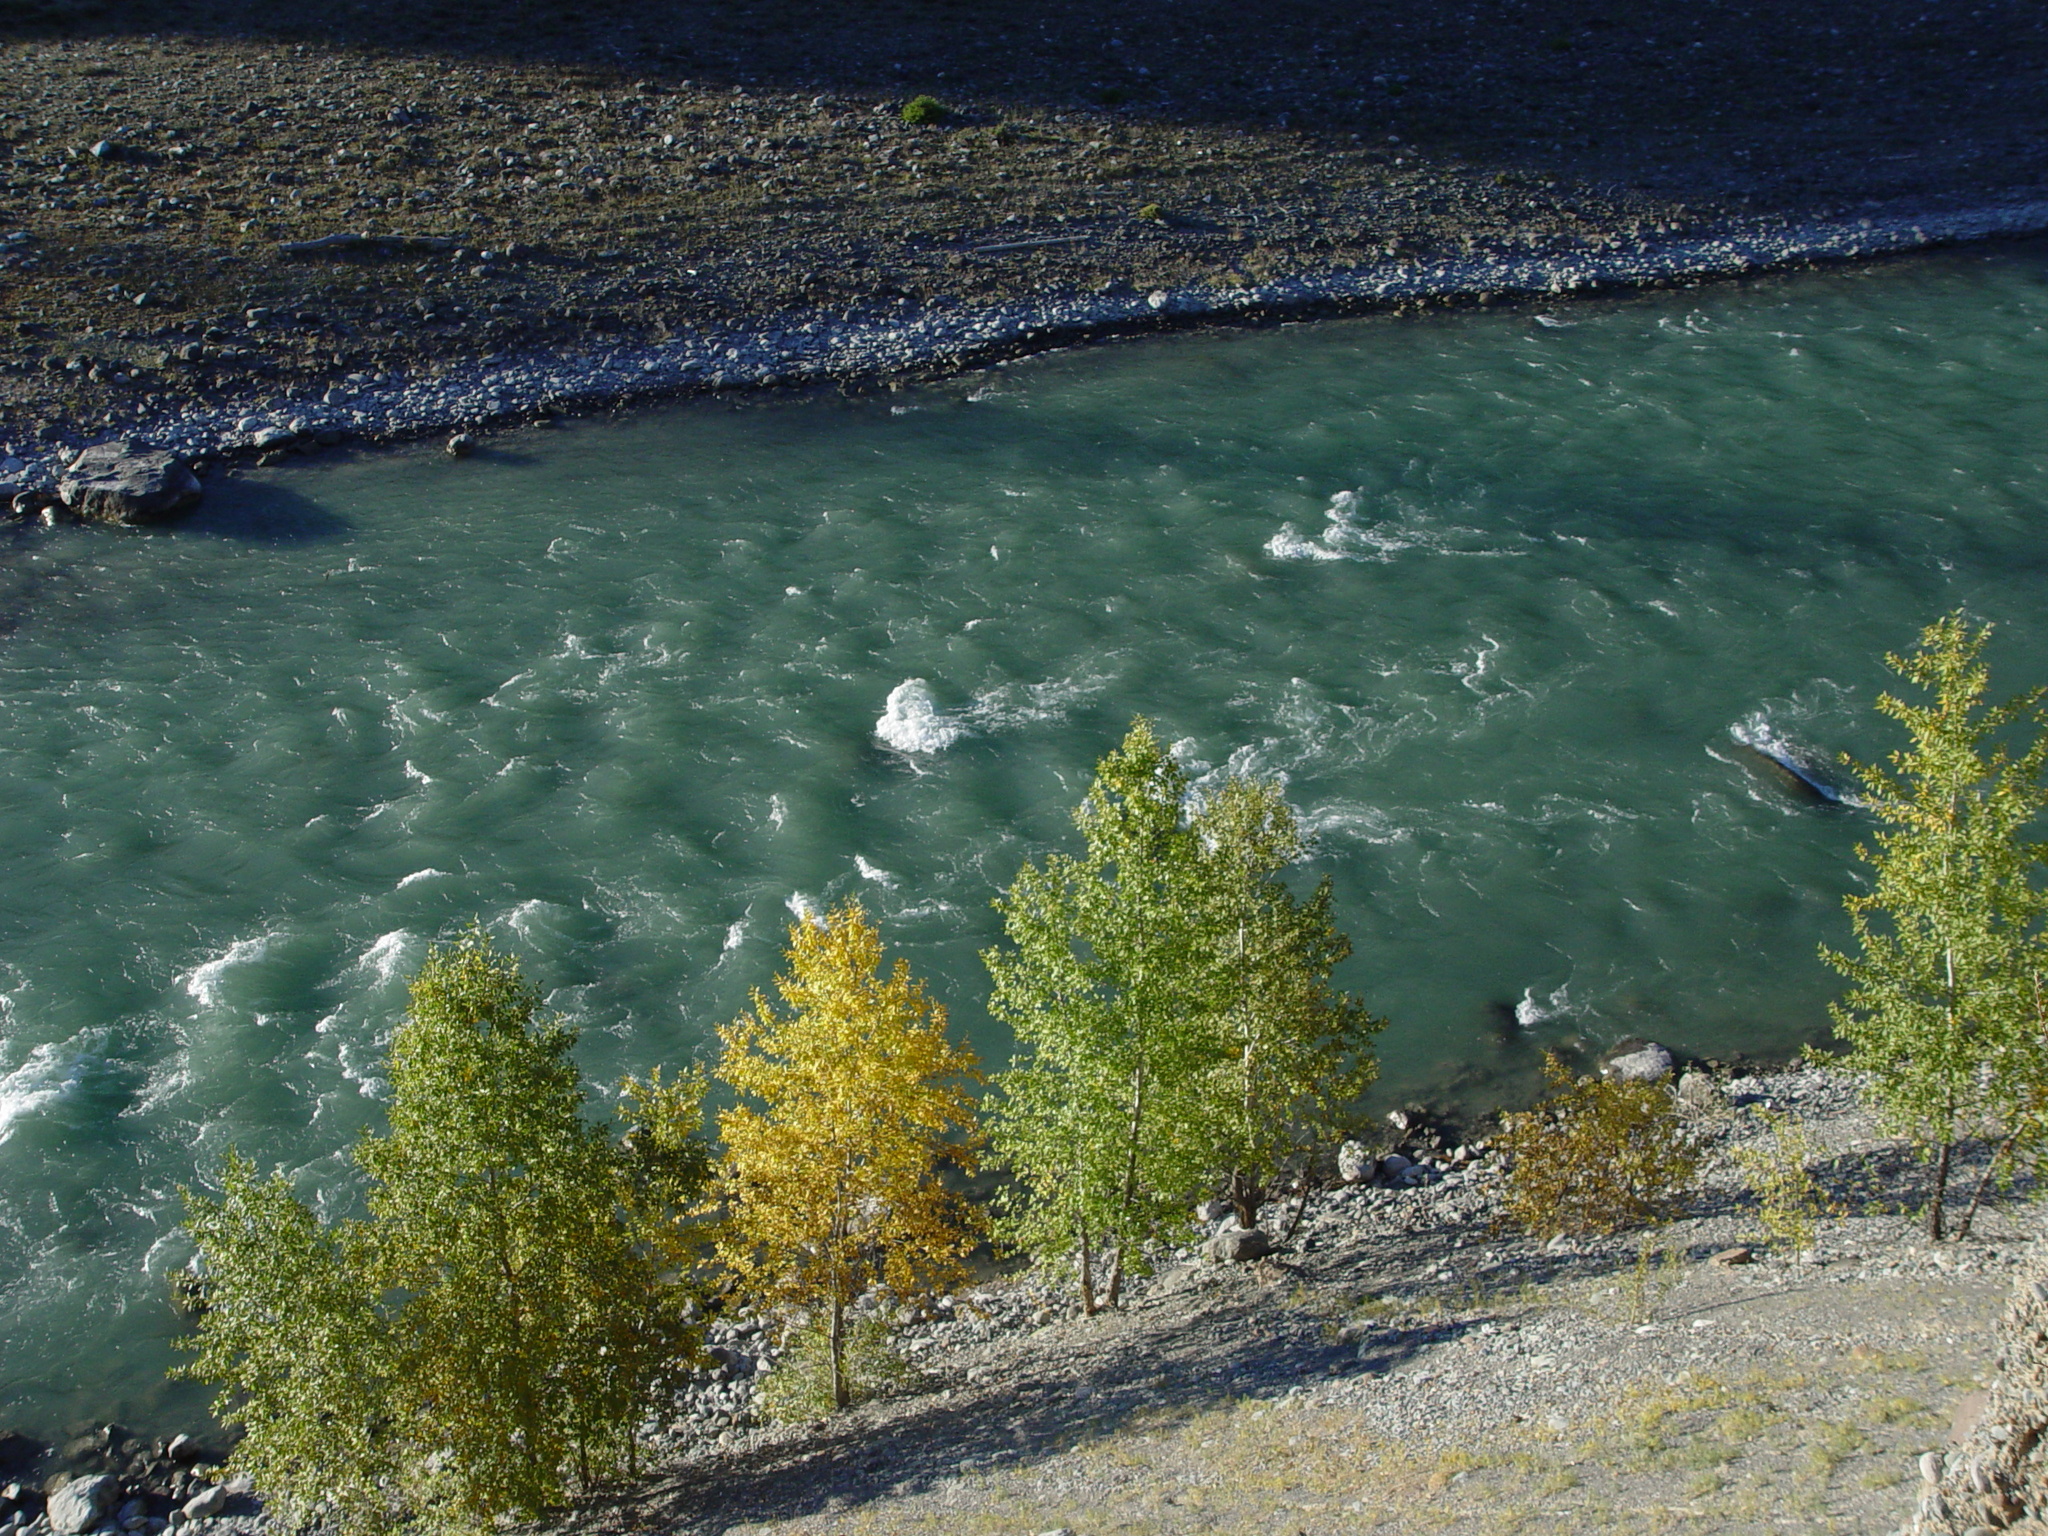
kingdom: Plantae
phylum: Tracheophyta
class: Magnoliopsida
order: Malpighiales
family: Salicaceae
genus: Populus
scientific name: Populus laurifolia
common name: Laurel-leaf poplar
